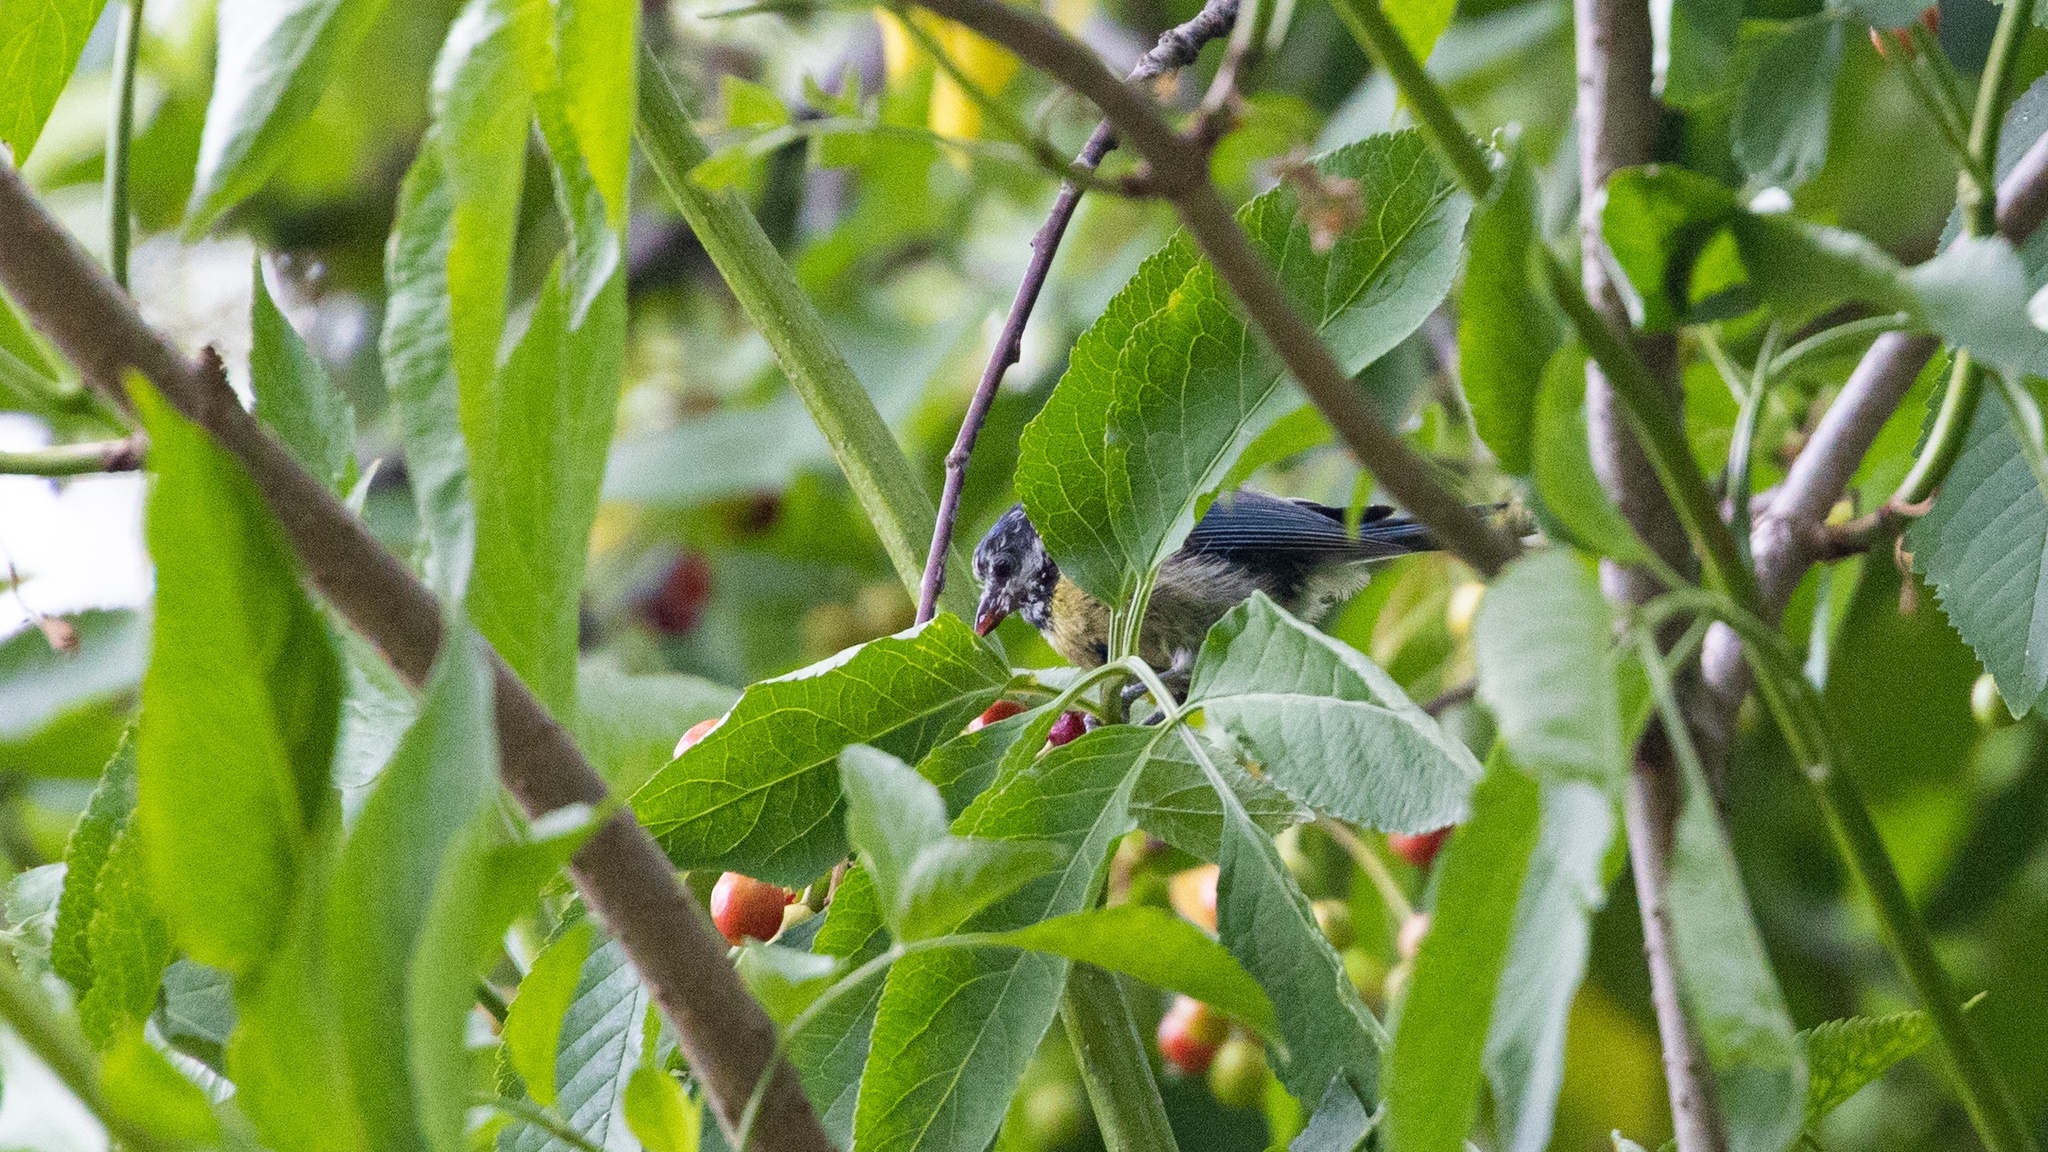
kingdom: Animalia
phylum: Chordata
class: Aves
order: Passeriformes
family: Paridae
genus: Cyanistes
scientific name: Cyanistes caeruleus
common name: Eurasian blue tit
